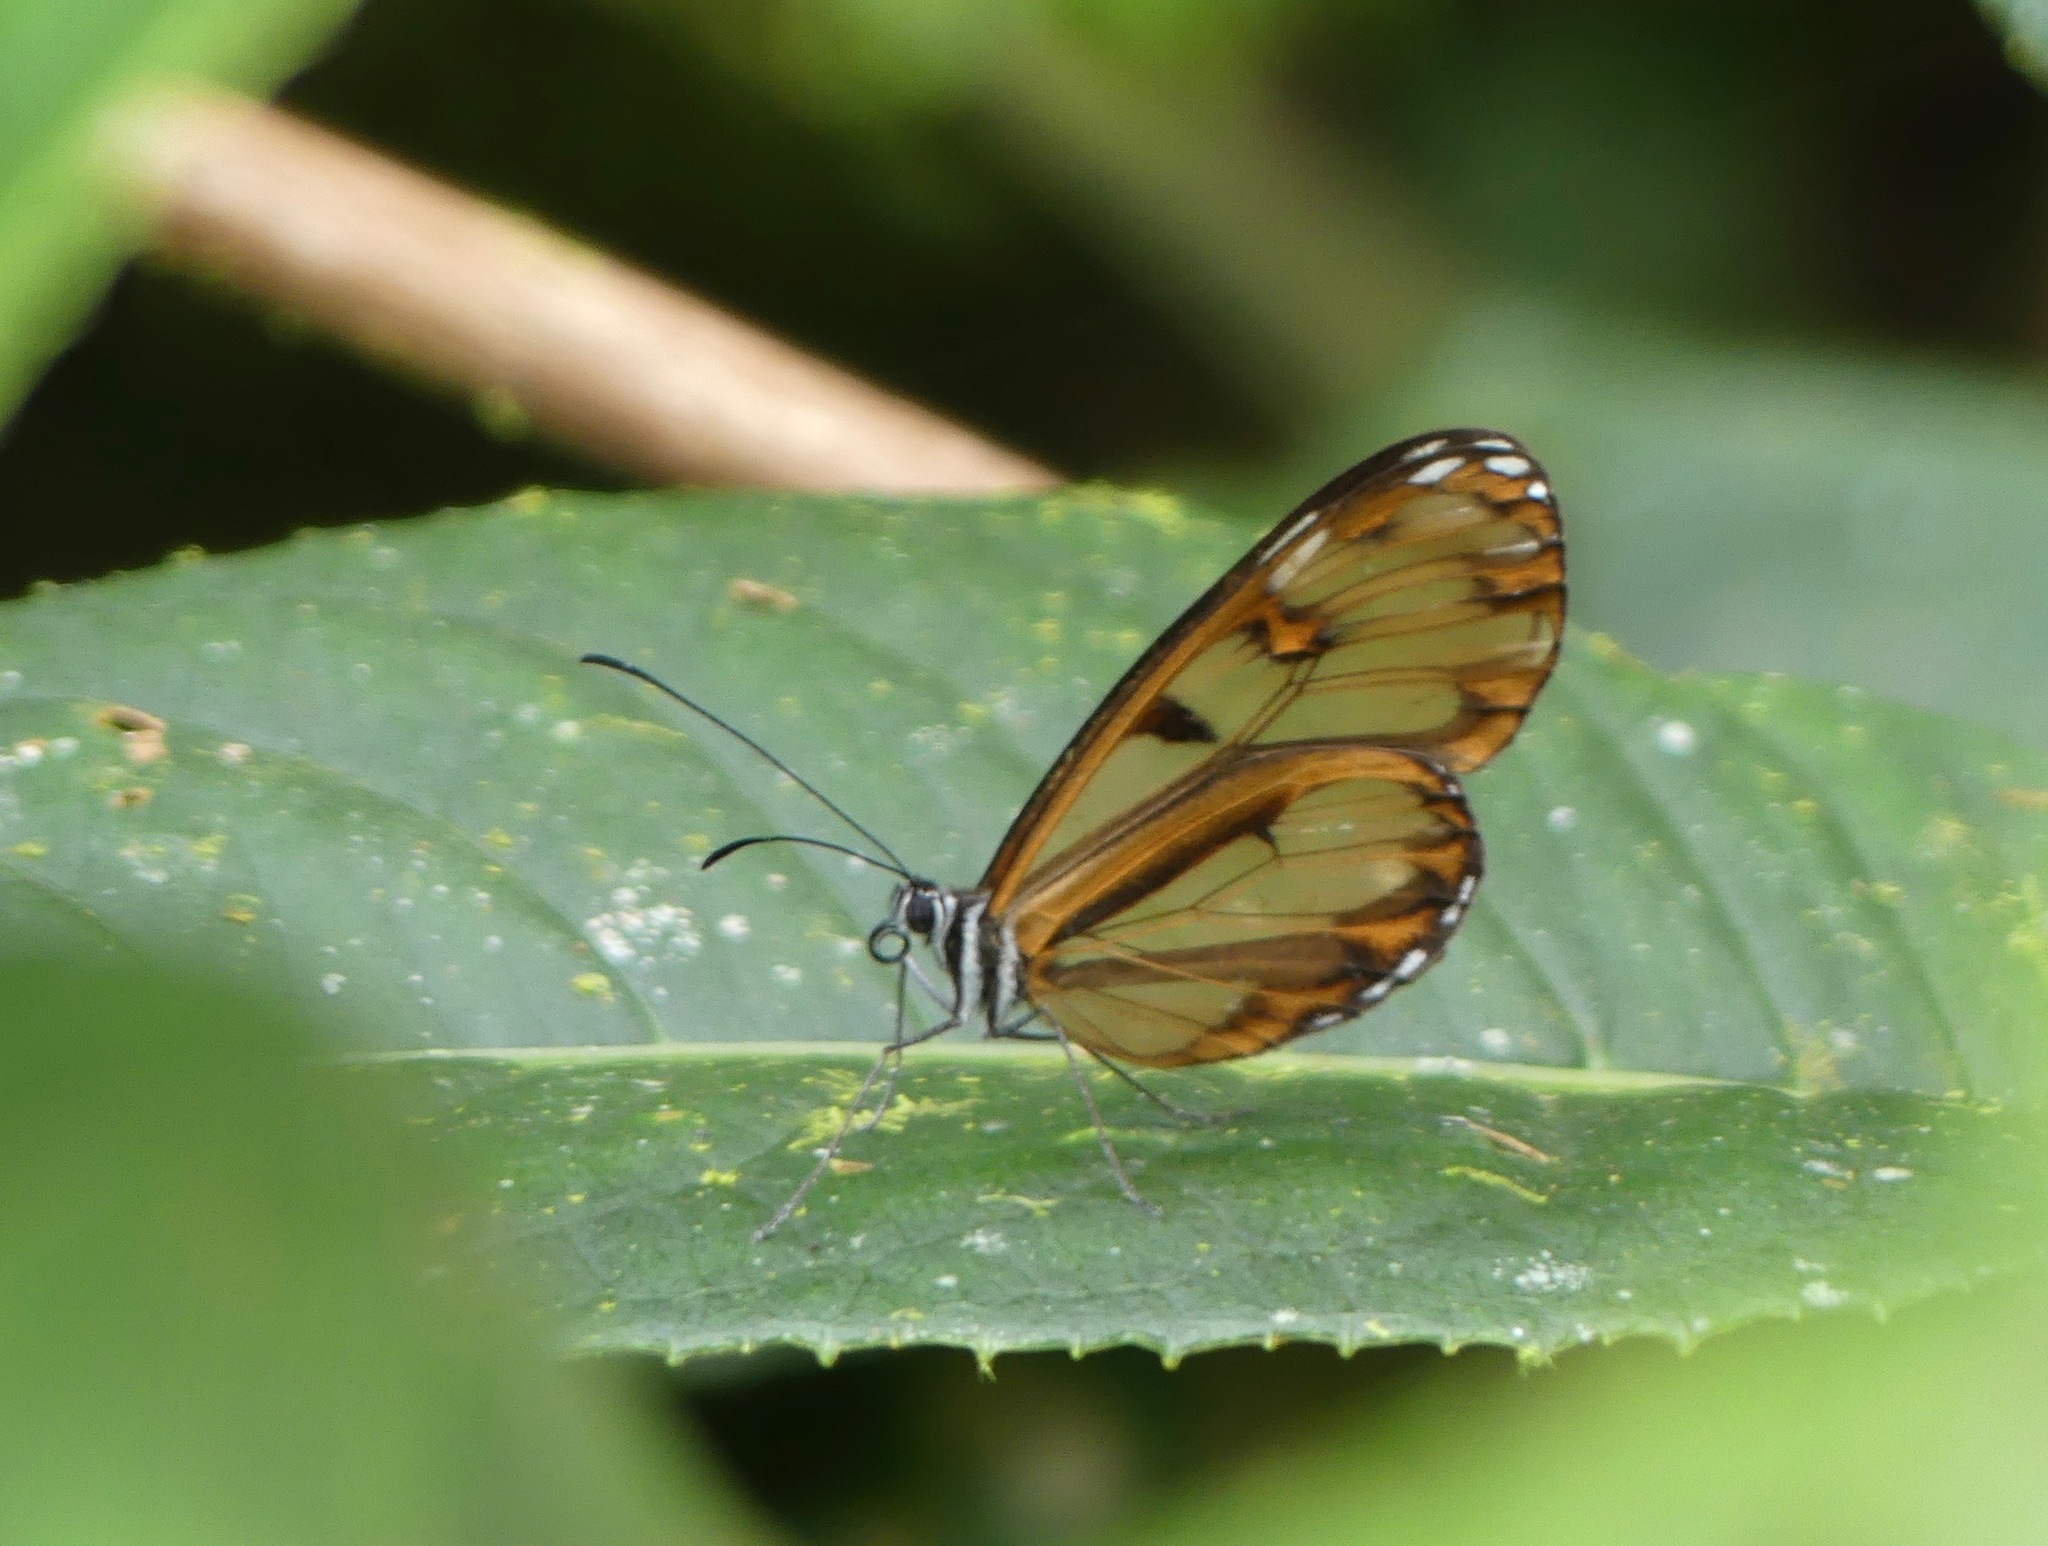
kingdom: Animalia
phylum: Arthropoda
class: Insecta
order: Lepidoptera
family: Nymphalidae
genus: Oleria
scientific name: Oleria baizana
